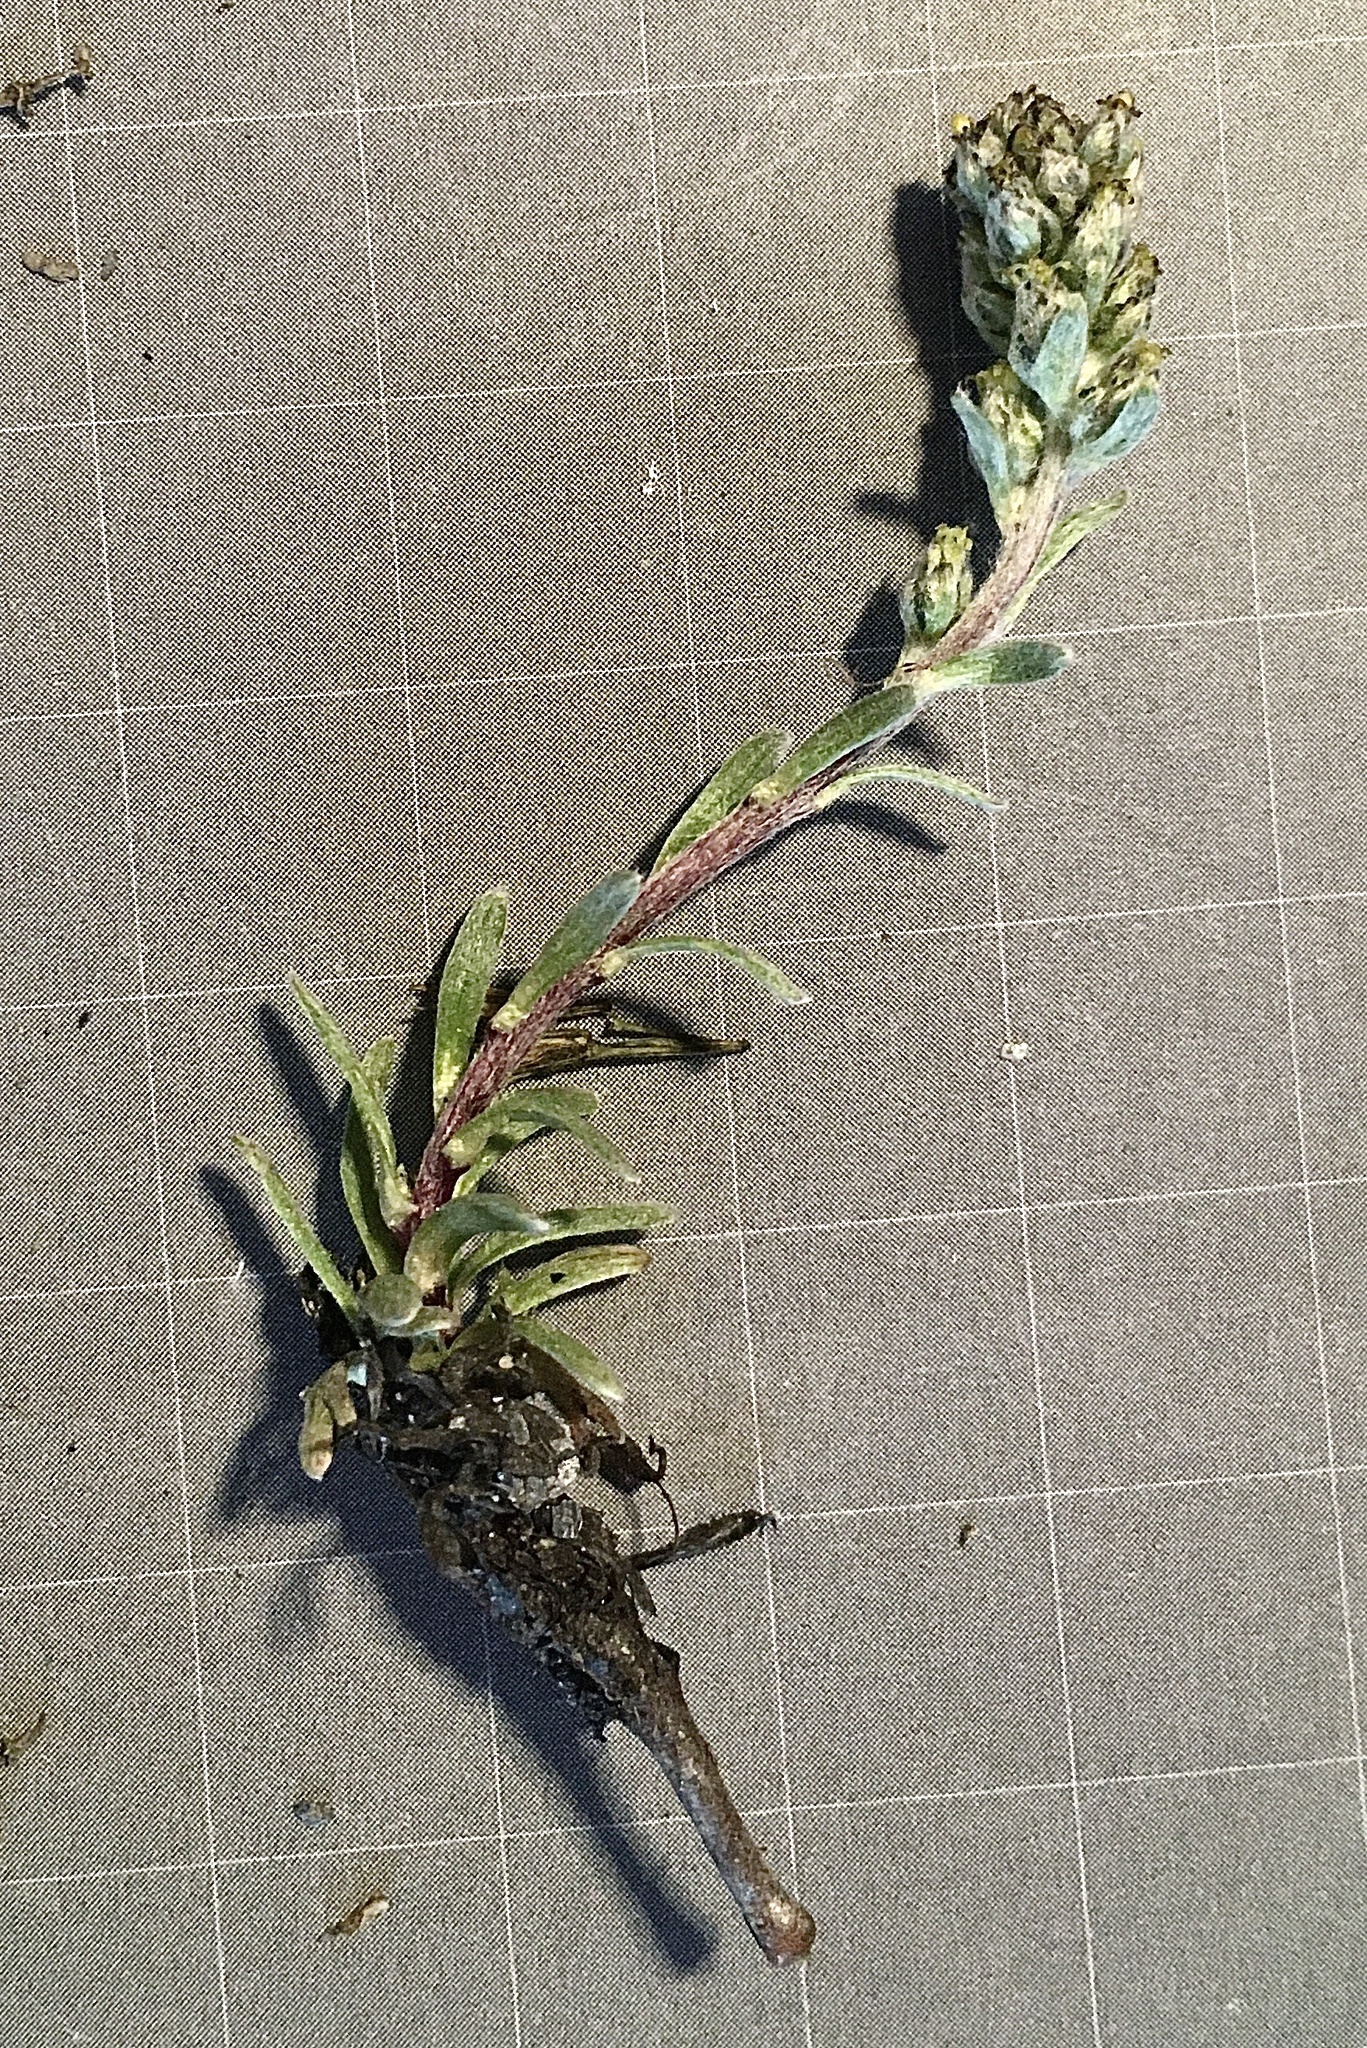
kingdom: Plantae
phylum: Tracheophyta
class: Magnoliopsida
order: Asterales
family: Asteraceae
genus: Artemisia
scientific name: Artemisia genipi
